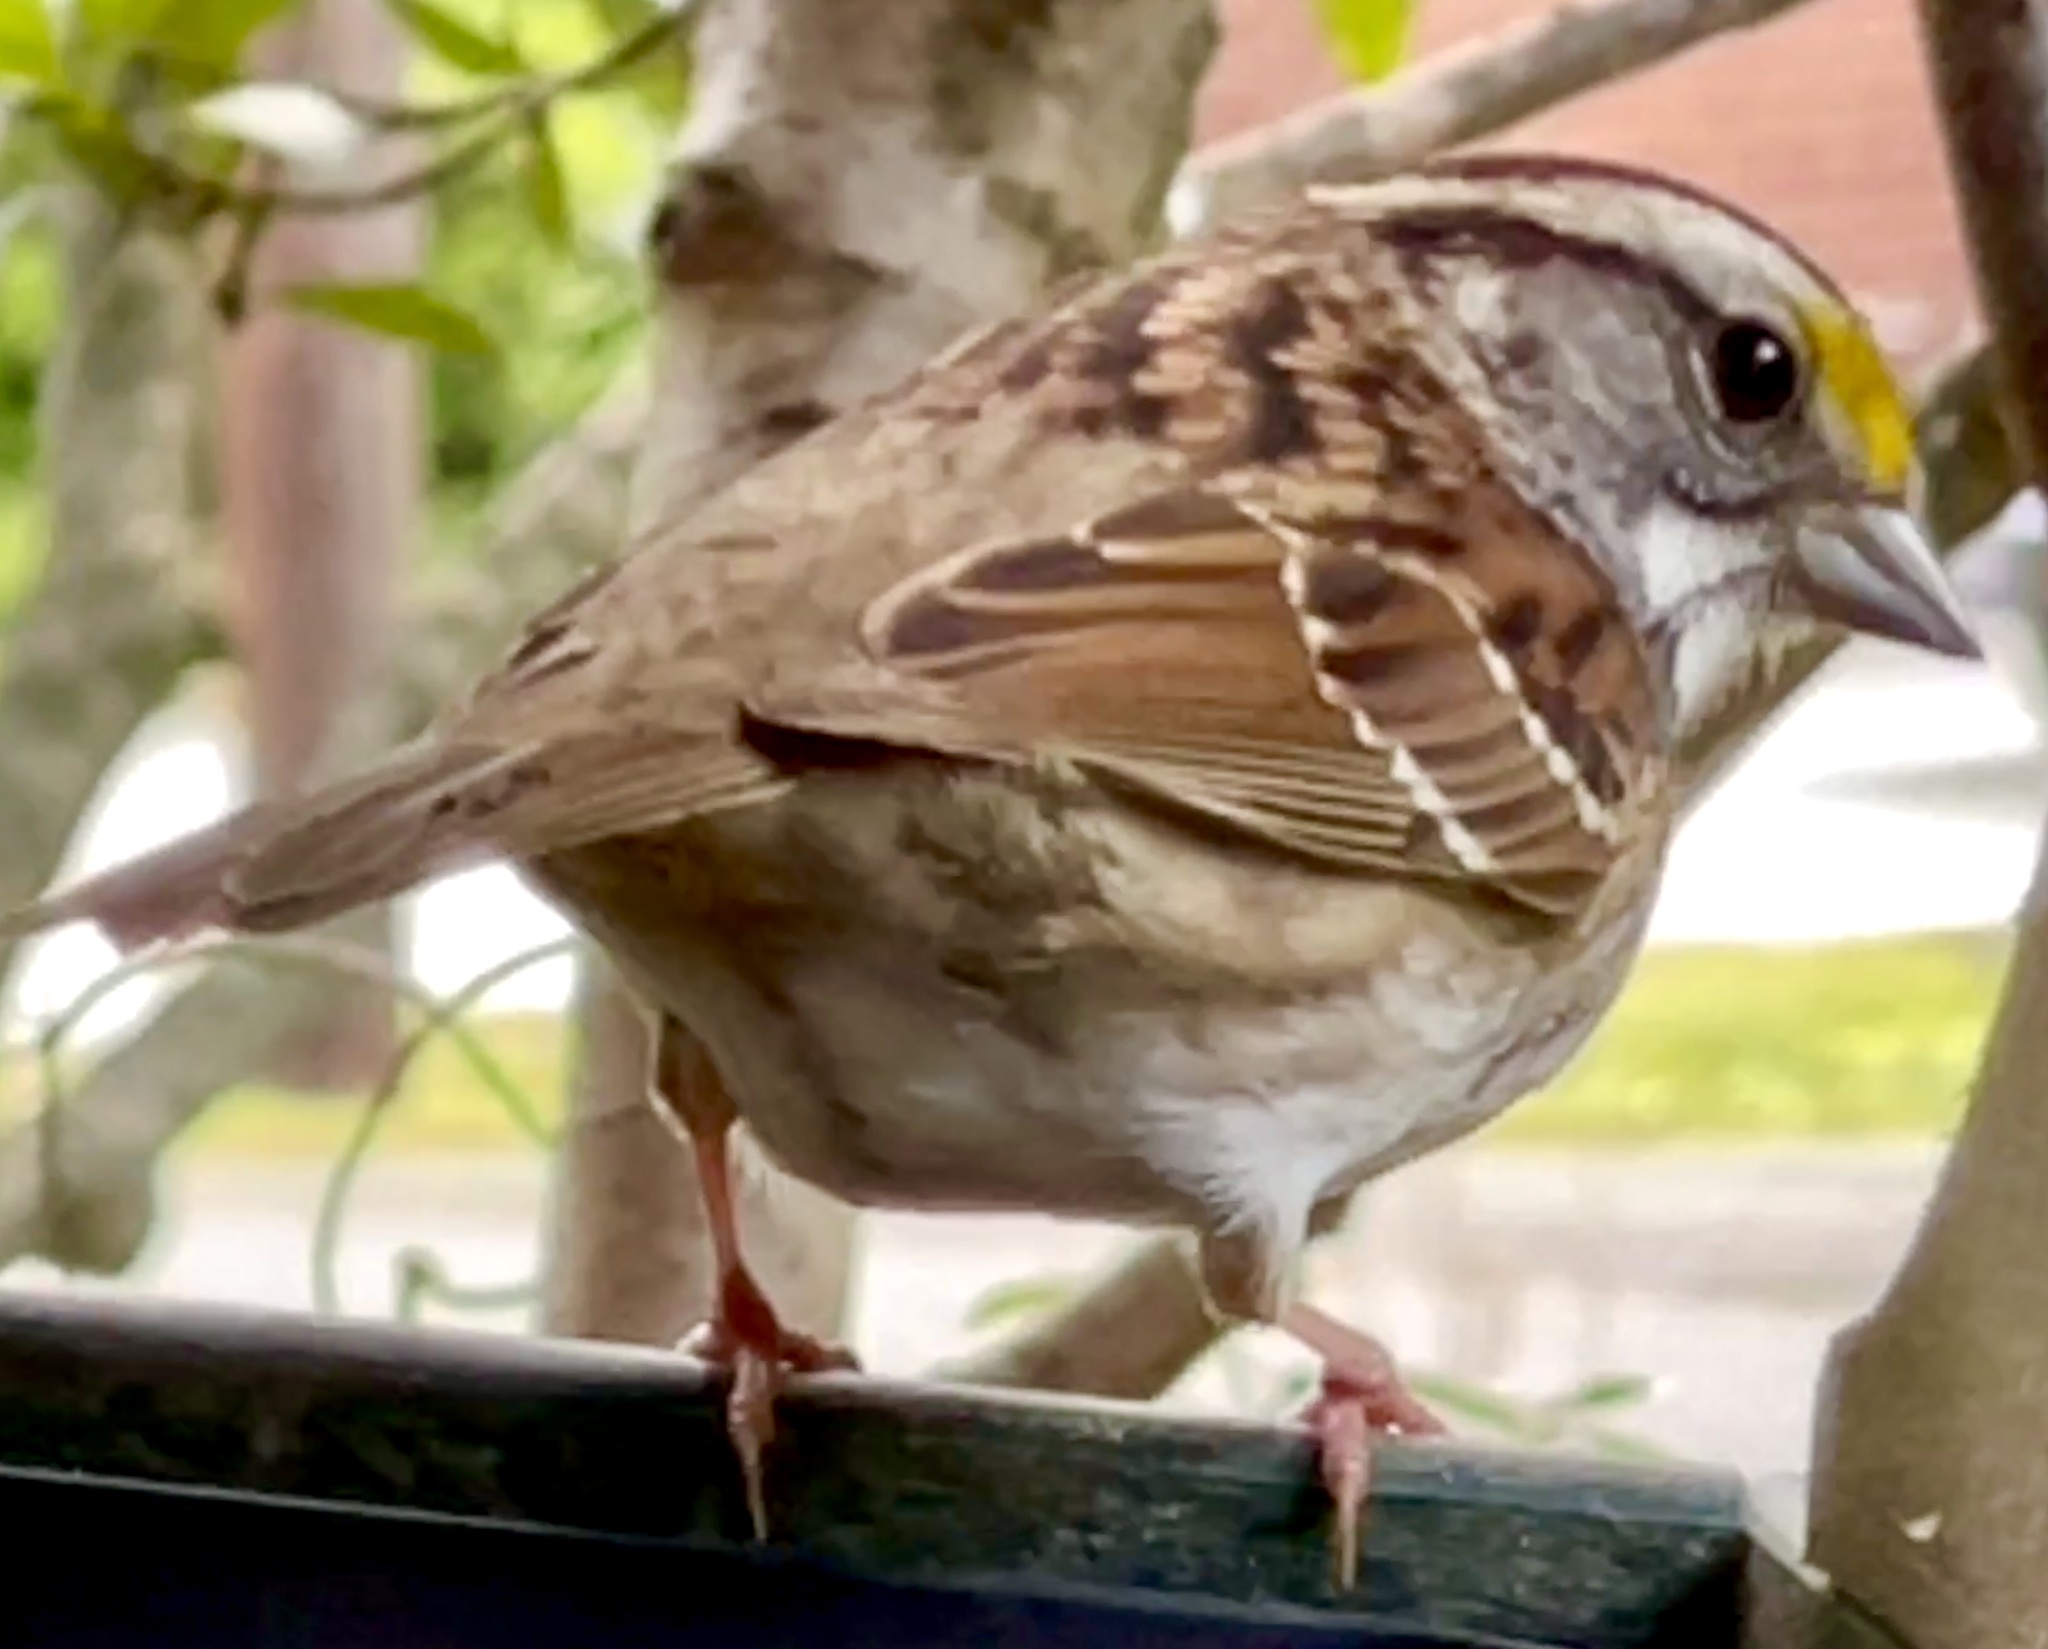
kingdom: Animalia
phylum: Chordata
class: Aves
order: Passeriformes
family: Passerellidae
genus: Zonotrichia
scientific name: Zonotrichia albicollis
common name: White-throated sparrow
